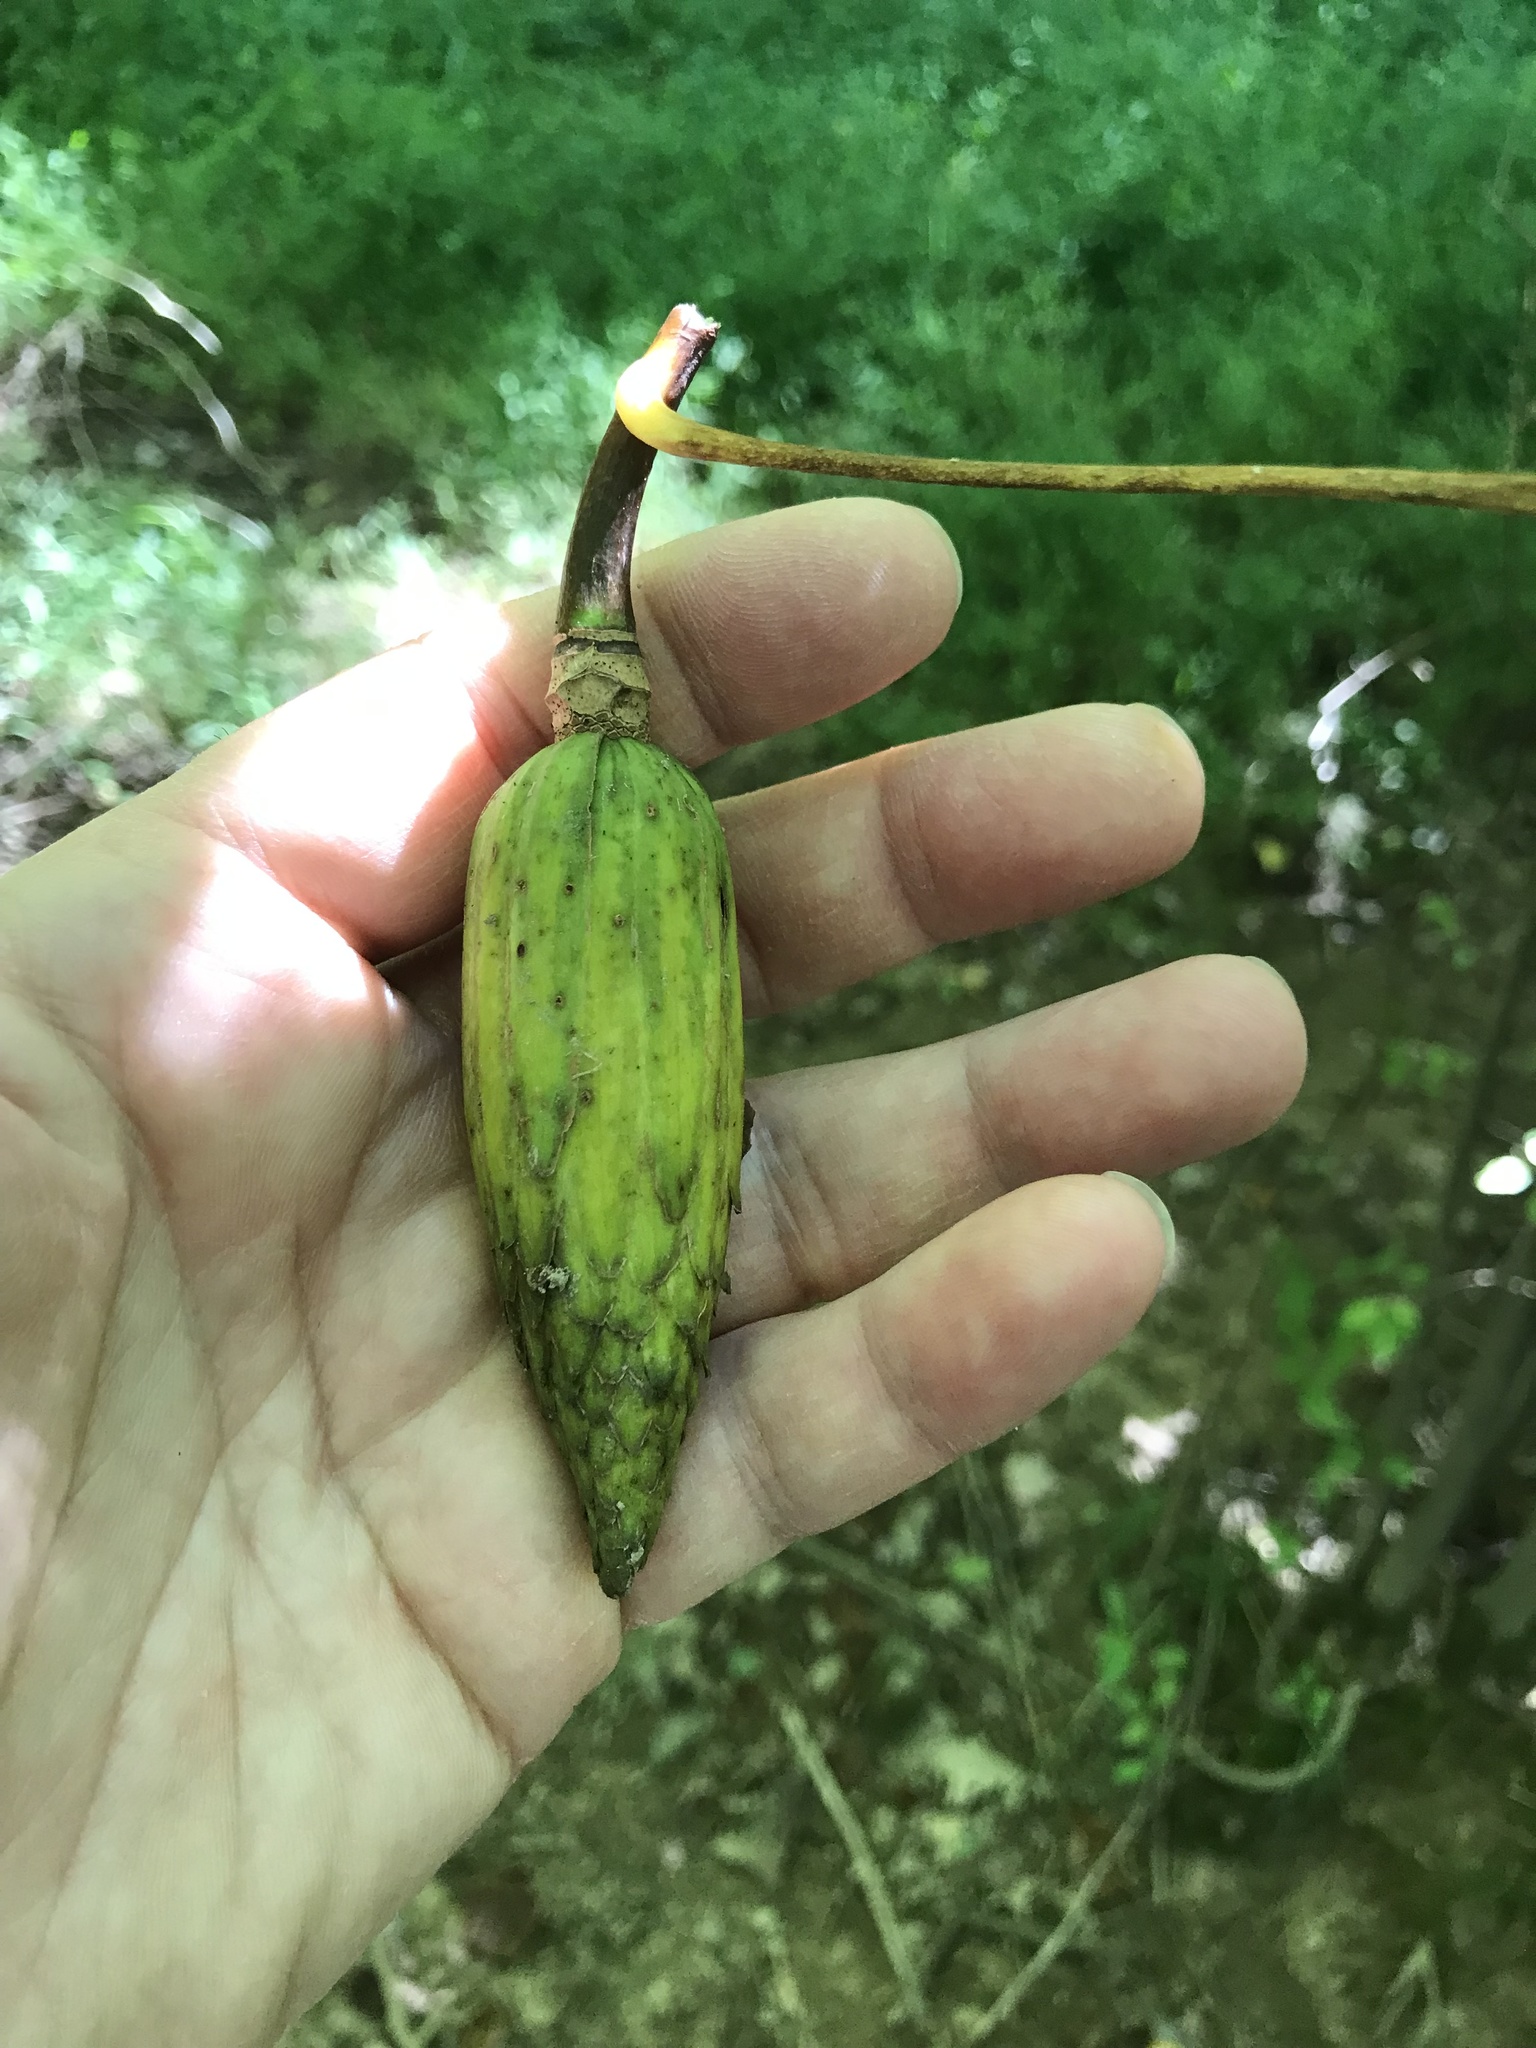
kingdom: Plantae
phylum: Tracheophyta
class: Magnoliopsida
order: Magnoliales
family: Magnoliaceae
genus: Liriodendron
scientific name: Liriodendron tulipifera
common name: Tulip tree
